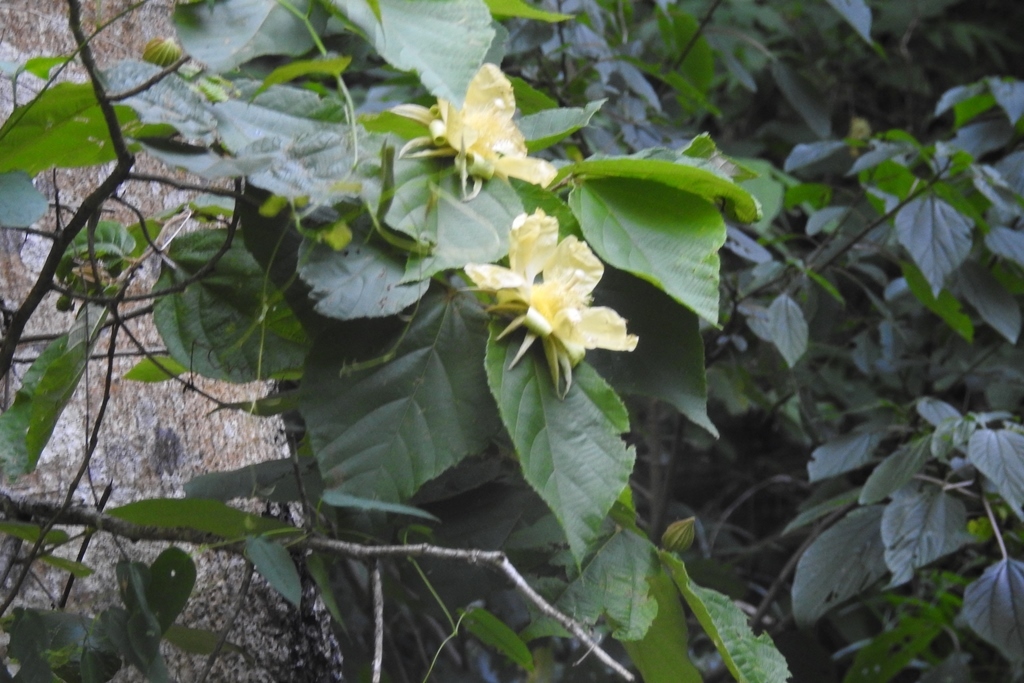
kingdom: Plantae
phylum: Tracheophyta
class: Magnoliopsida
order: Malvales
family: Malvaceae
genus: Luehea
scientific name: Luehea speciosa
